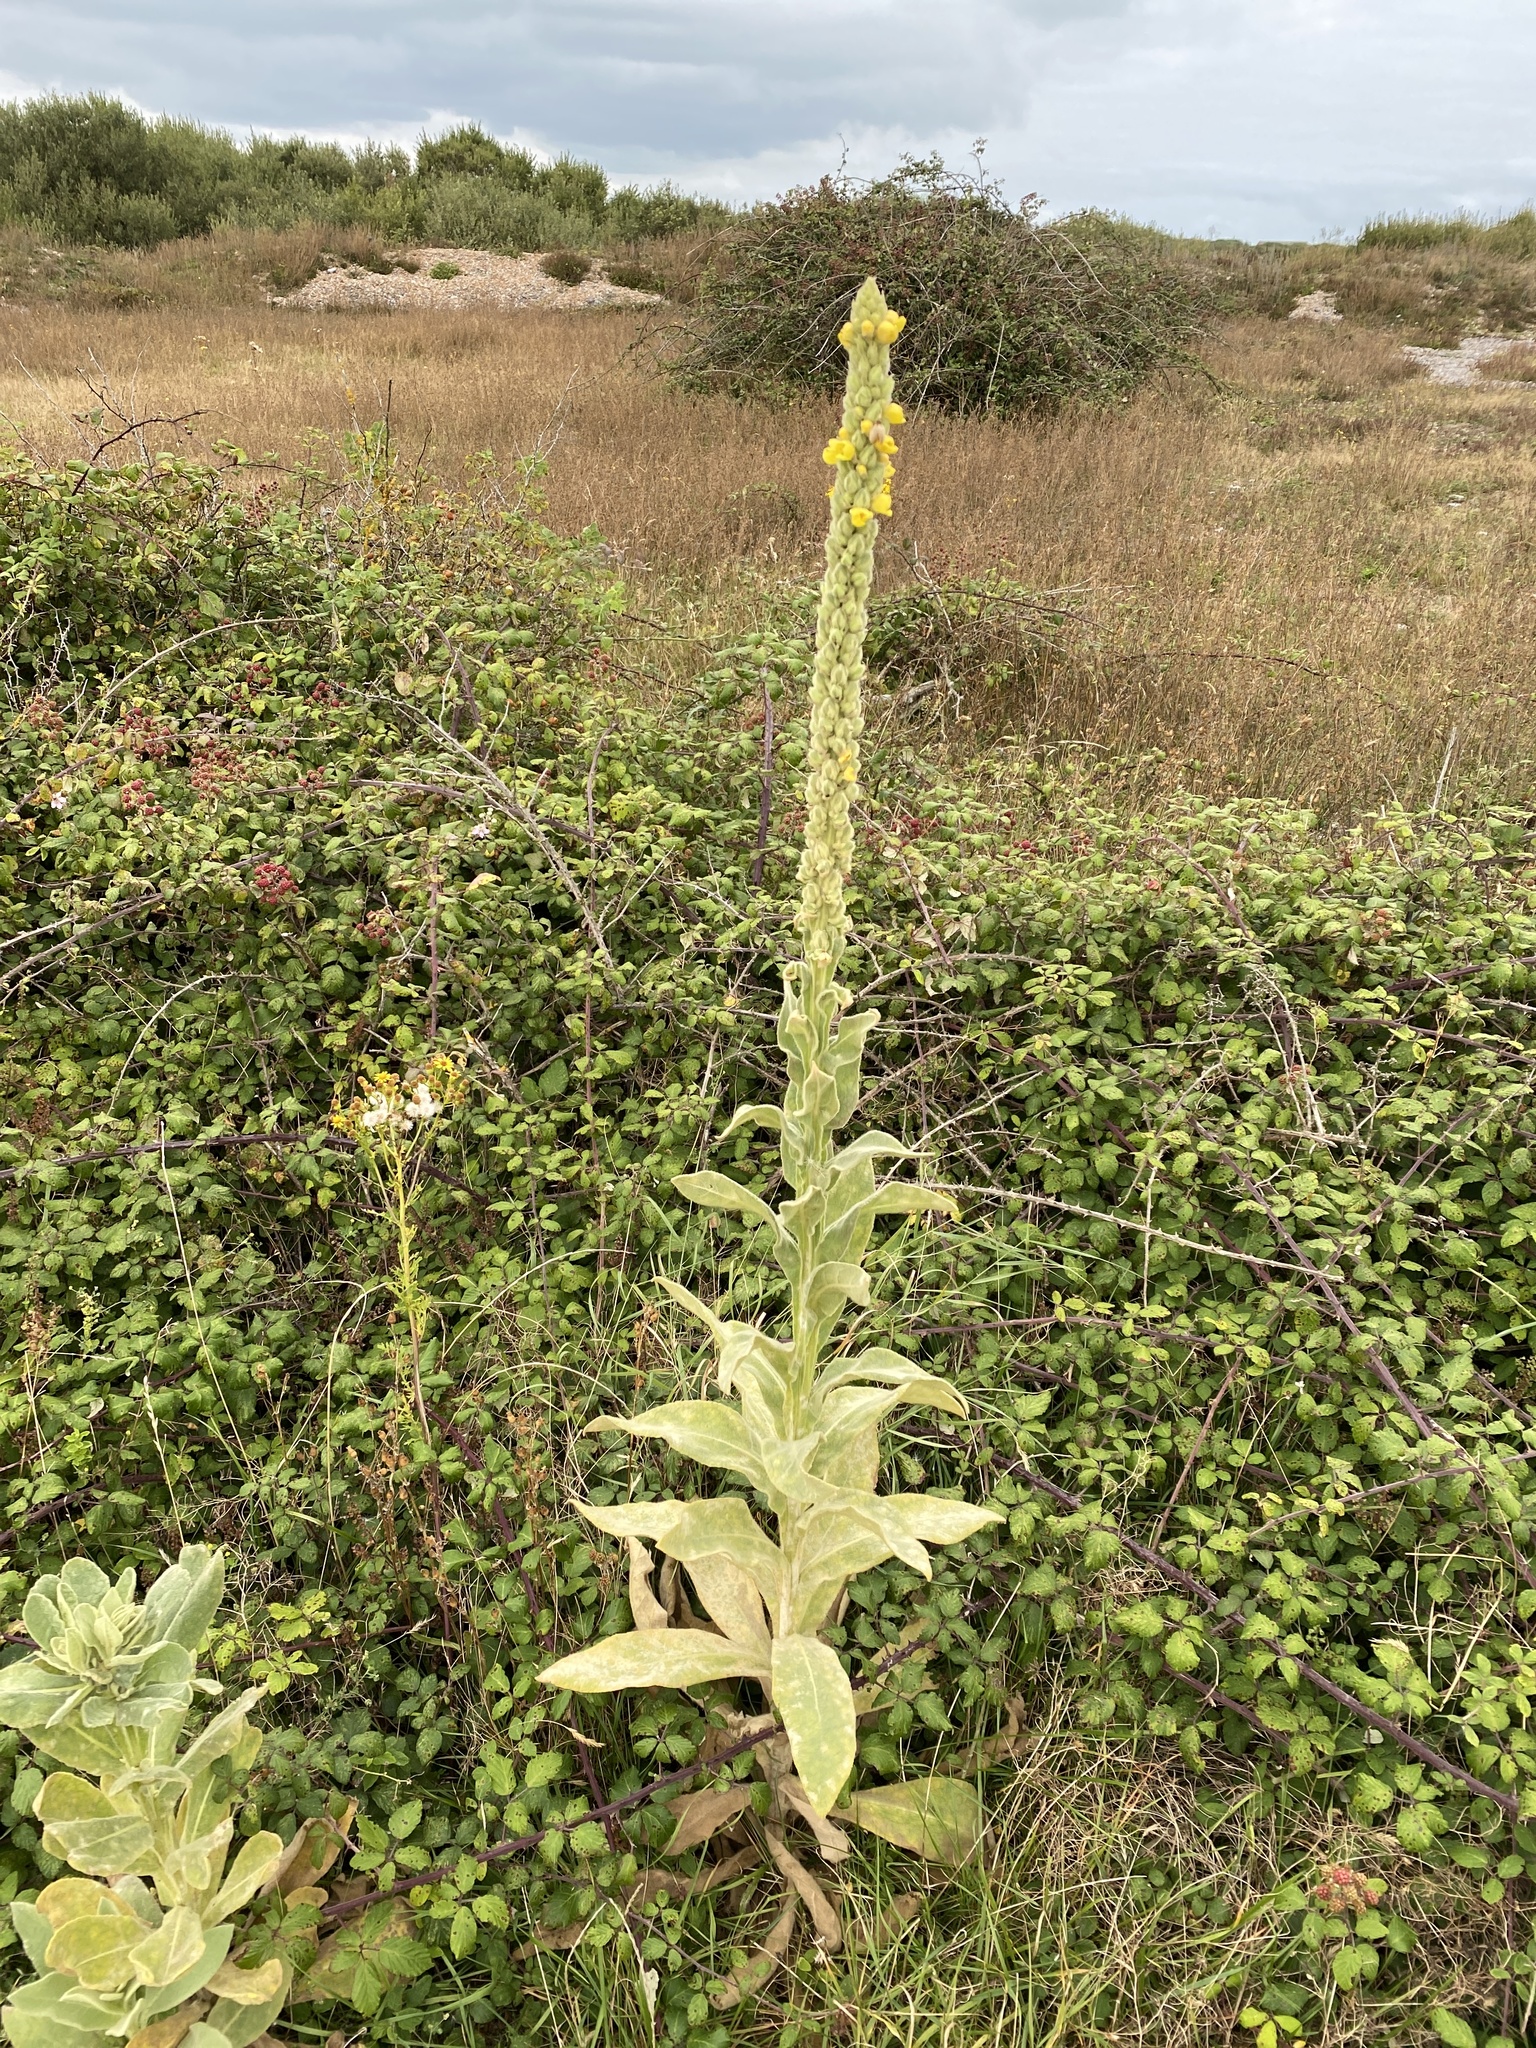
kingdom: Plantae
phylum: Tracheophyta
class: Magnoliopsida
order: Lamiales
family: Scrophulariaceae
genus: Verbascum
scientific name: Verbascum thapsus
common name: Common mullein
